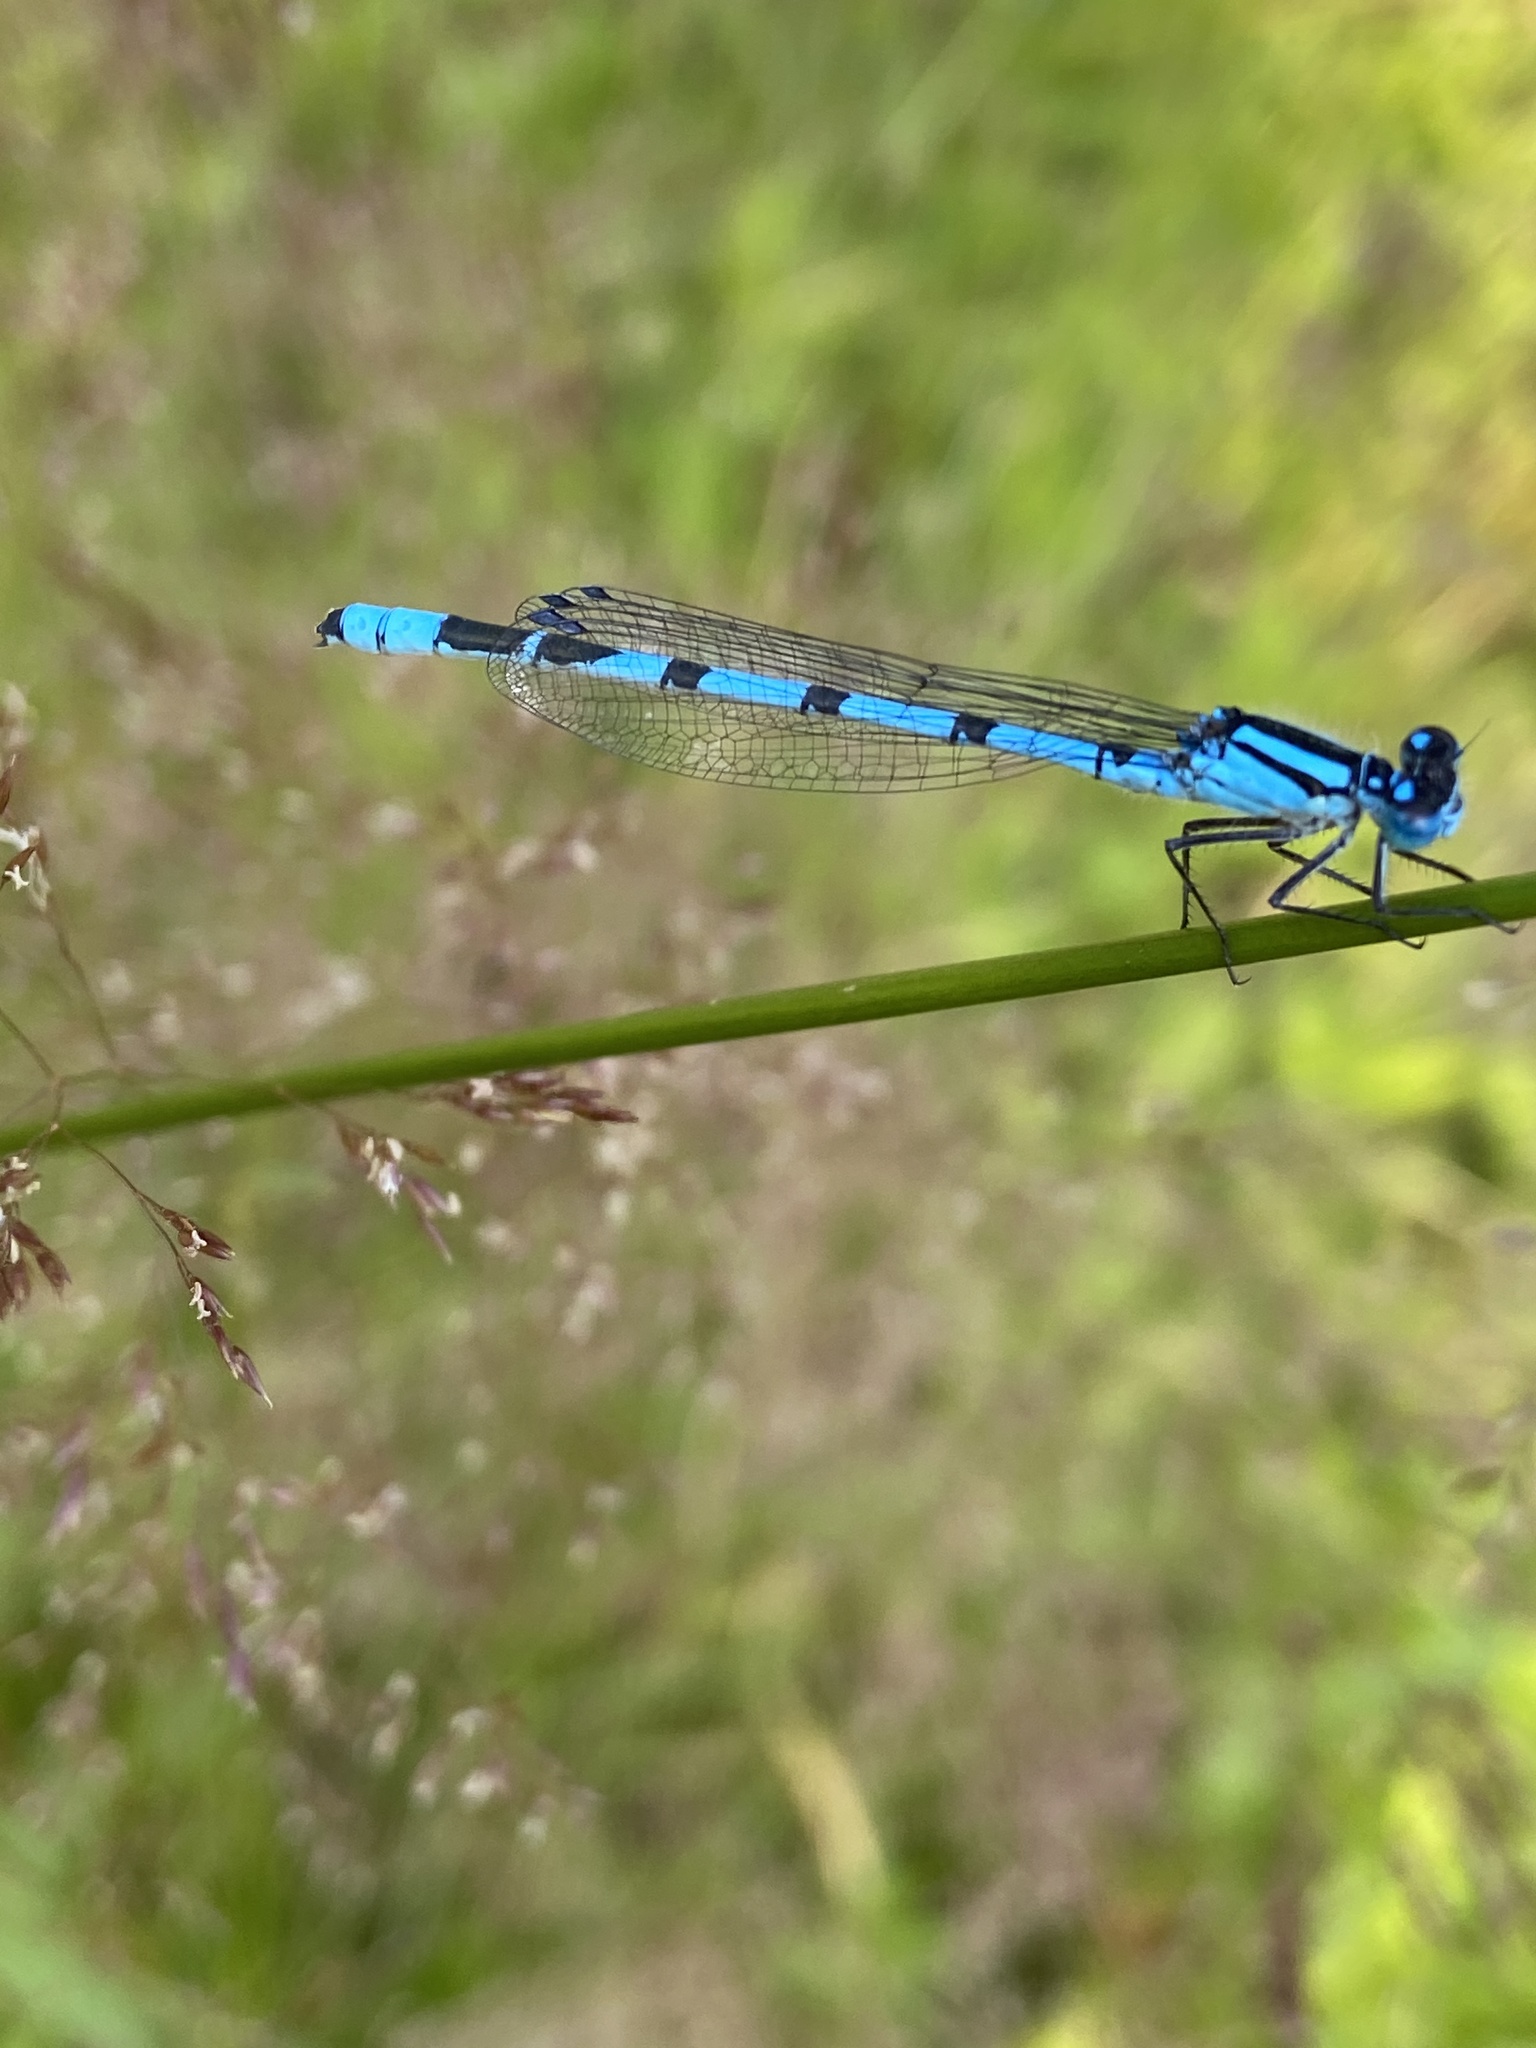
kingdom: Animalia
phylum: Arthropoda
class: Insecta
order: Odonata
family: Coenagrionidae
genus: Enallagma
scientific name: Enallagma cyathigerum
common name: Common blue damselfly
